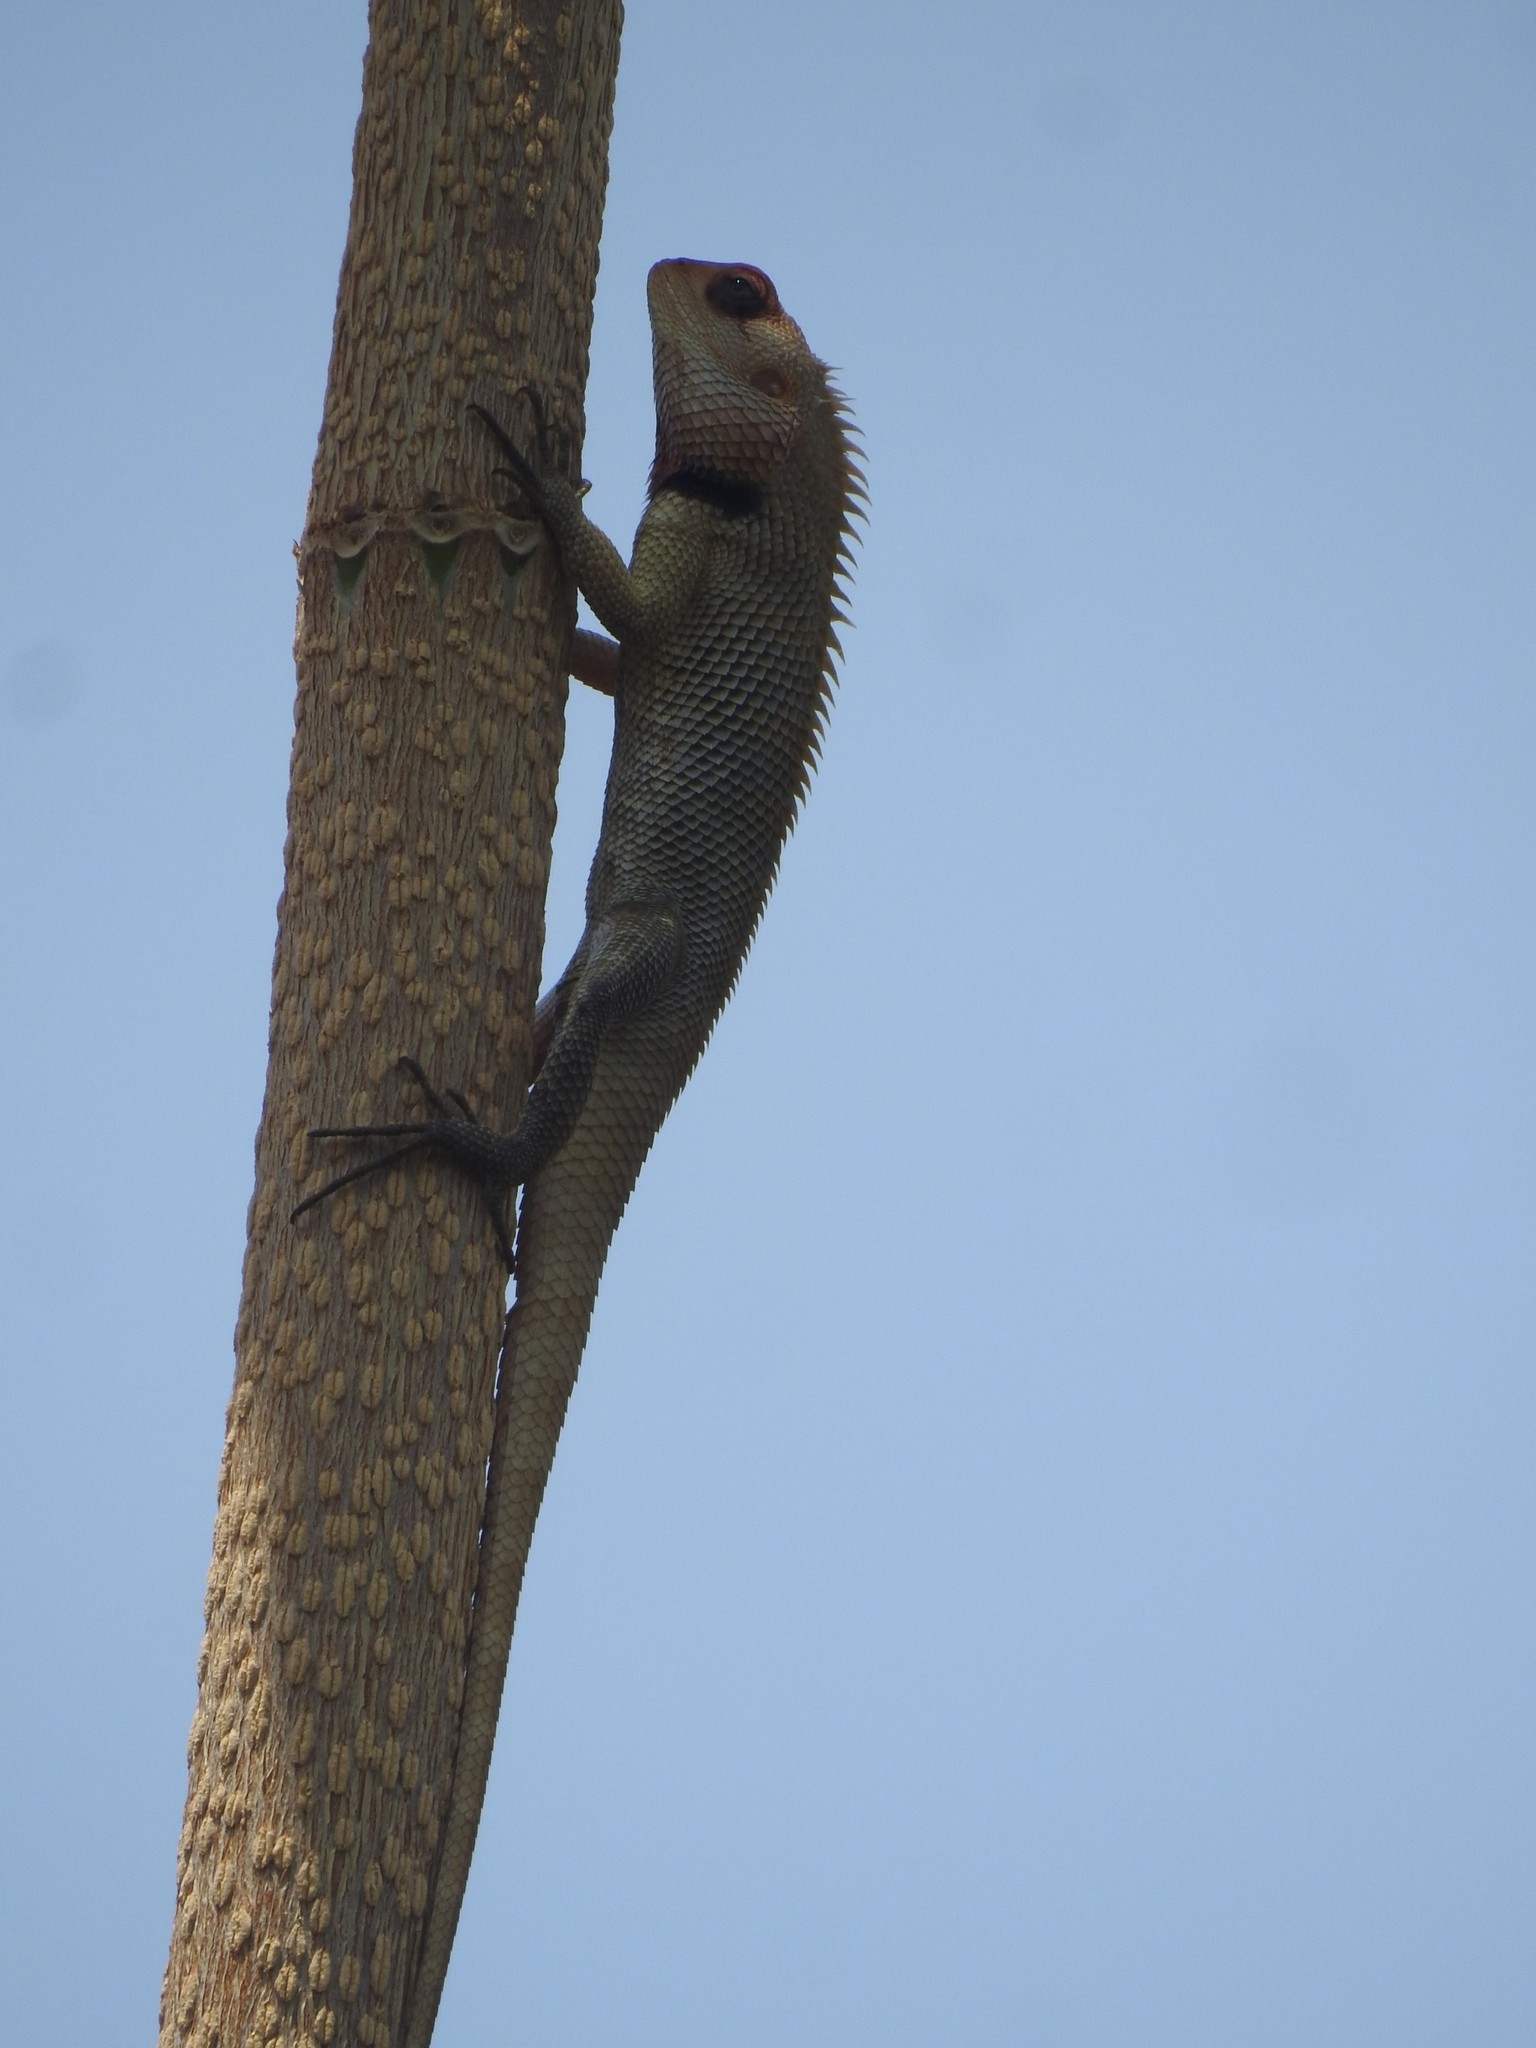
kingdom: Animalia
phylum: Chordata
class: Squamata
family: Agamidae
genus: Calotes
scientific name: Calotes versicolor
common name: Oriental garden lizard
